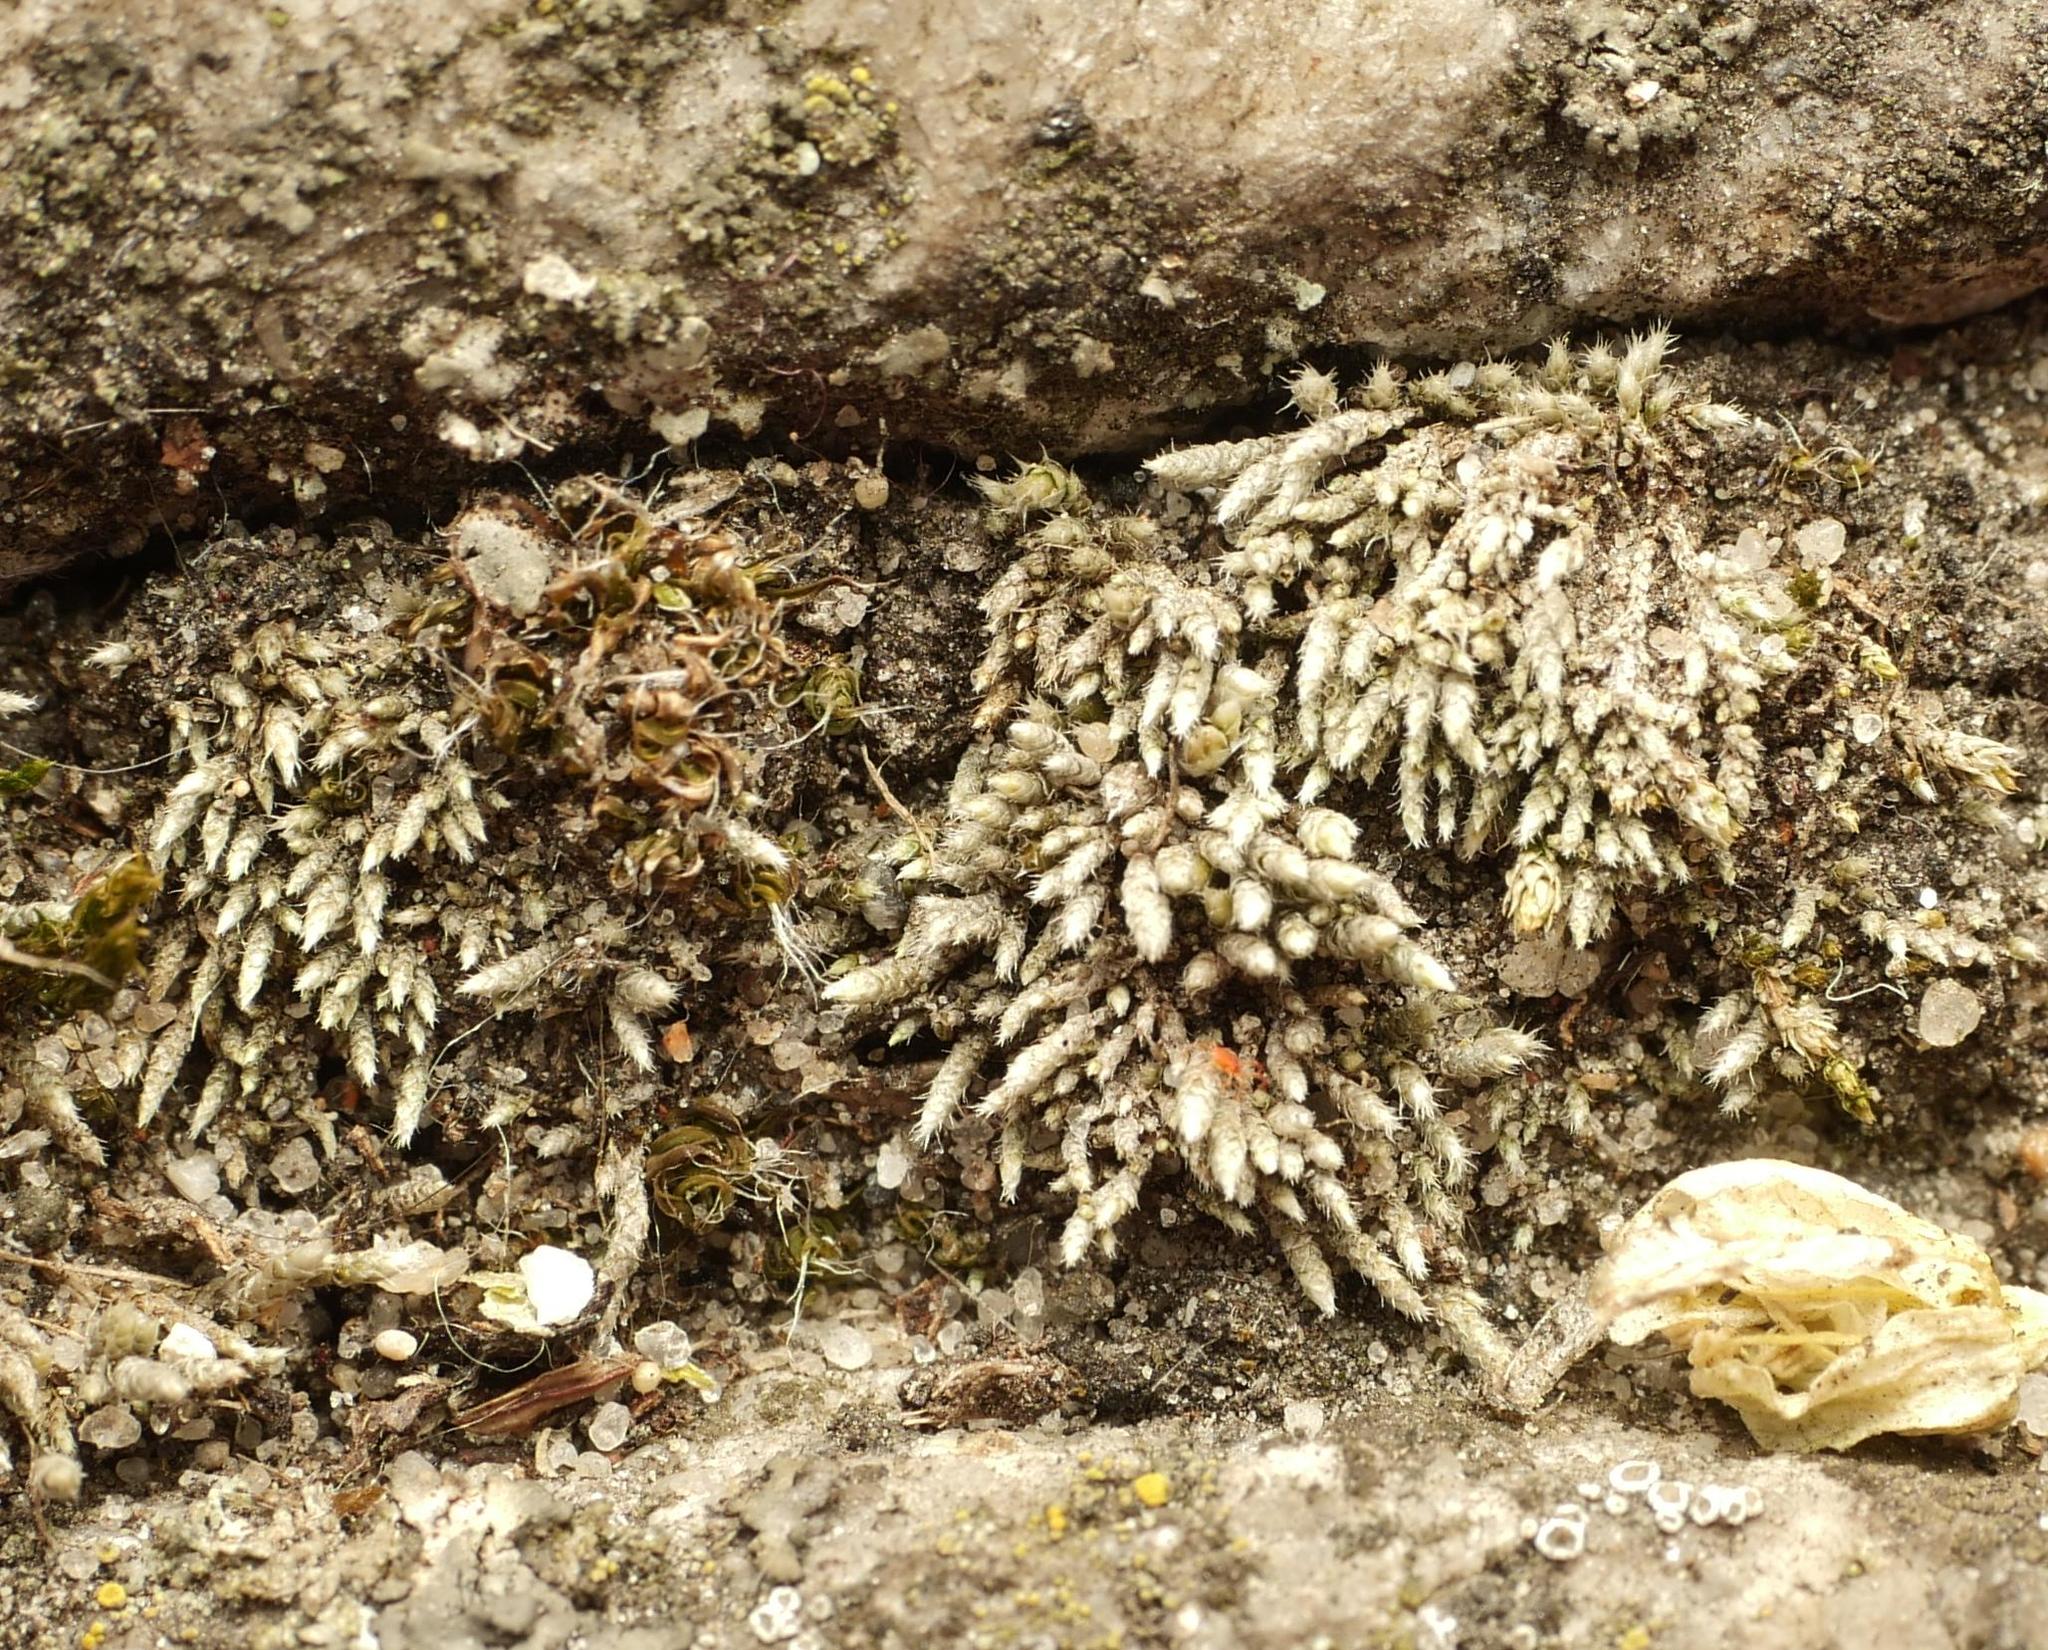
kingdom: Plantae
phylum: Bryophyta
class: Bryopsida
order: Bryales
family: Bryaceae
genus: Bryum
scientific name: Bryum argenteum
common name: Silver-moss
